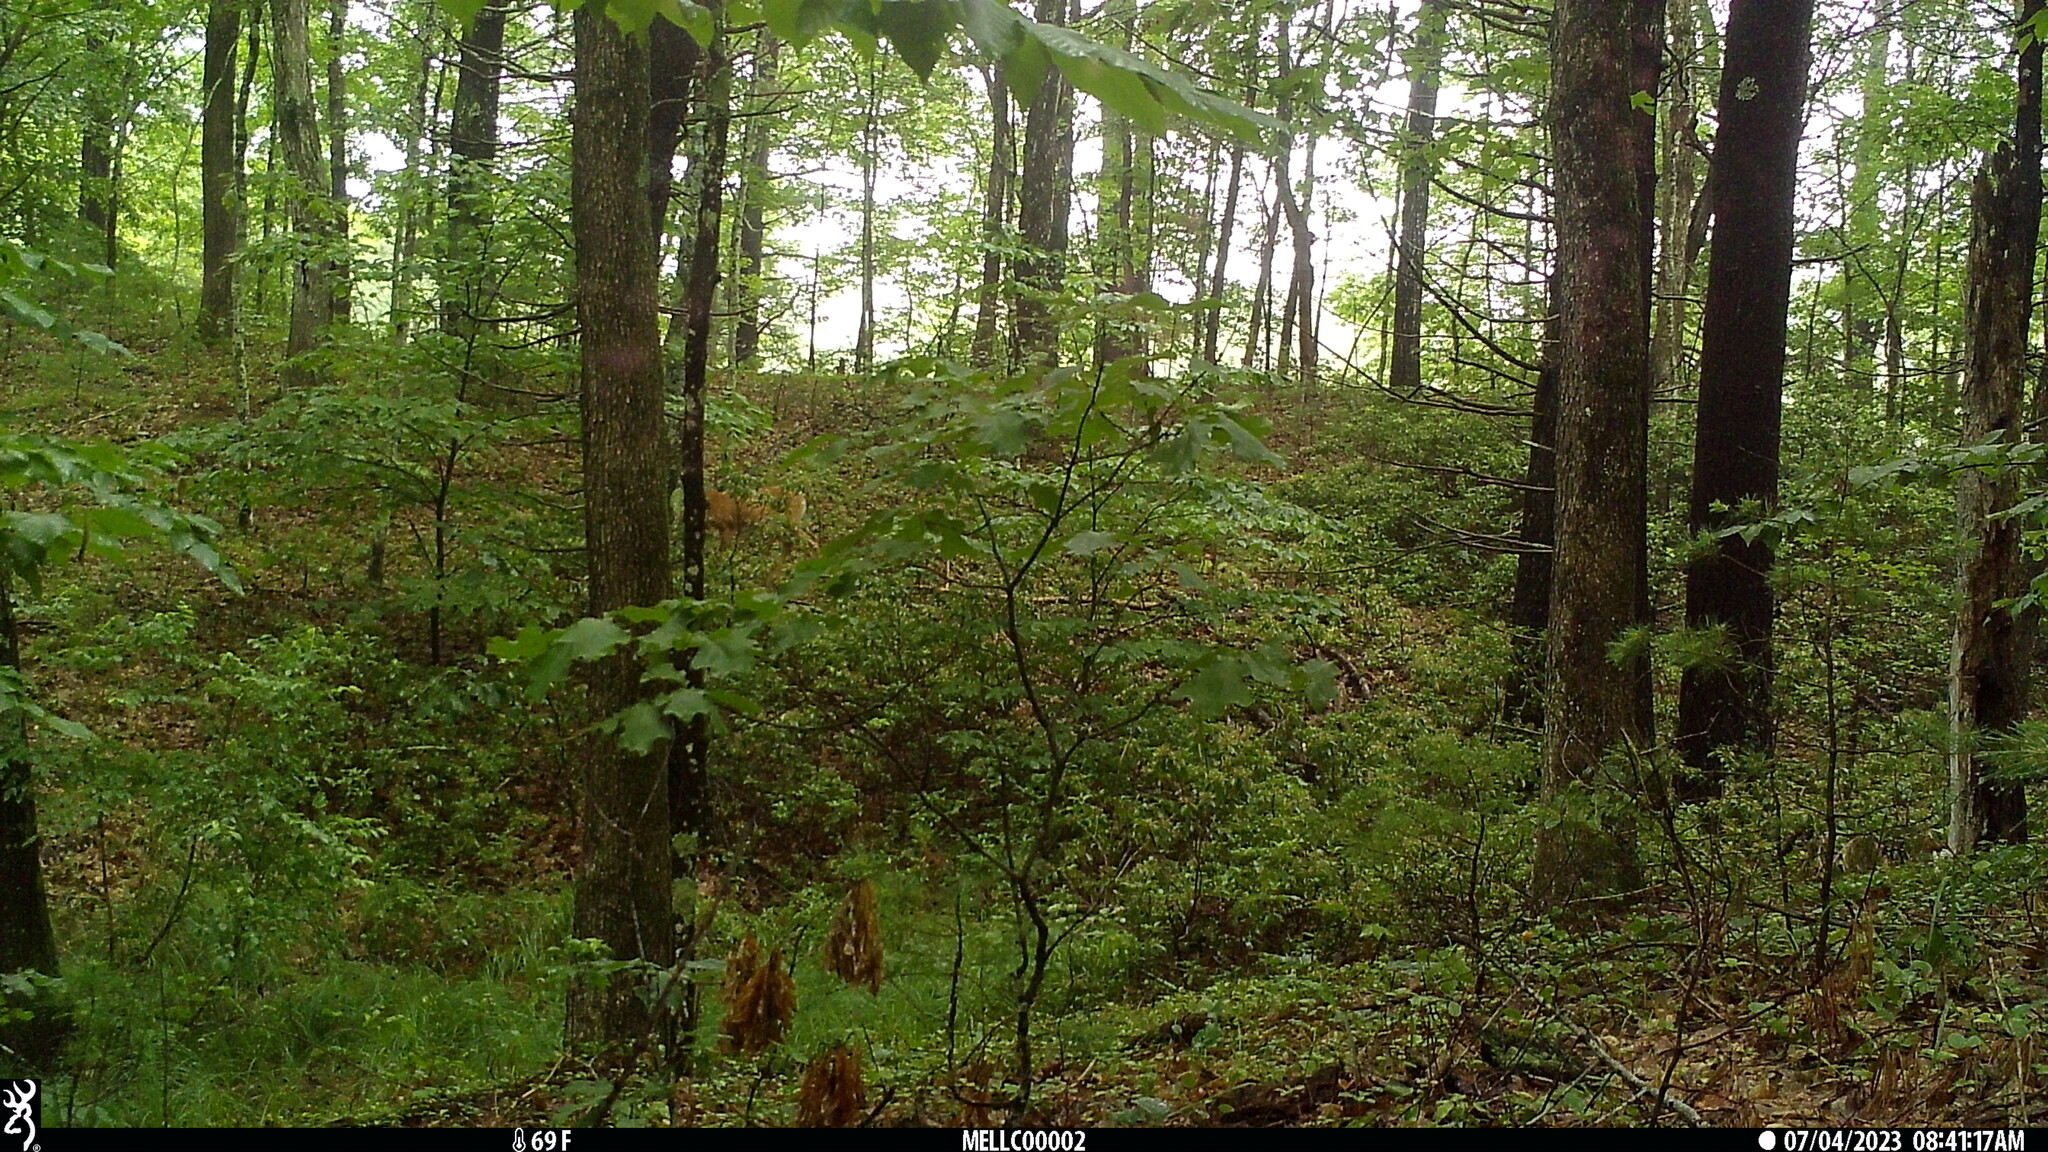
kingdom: Animalia
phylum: Chordata
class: Mammalia
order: Artiodactyla
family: Cervidae
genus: Odocoileus
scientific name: Odocoileus virginianus
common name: White-tailed deer
